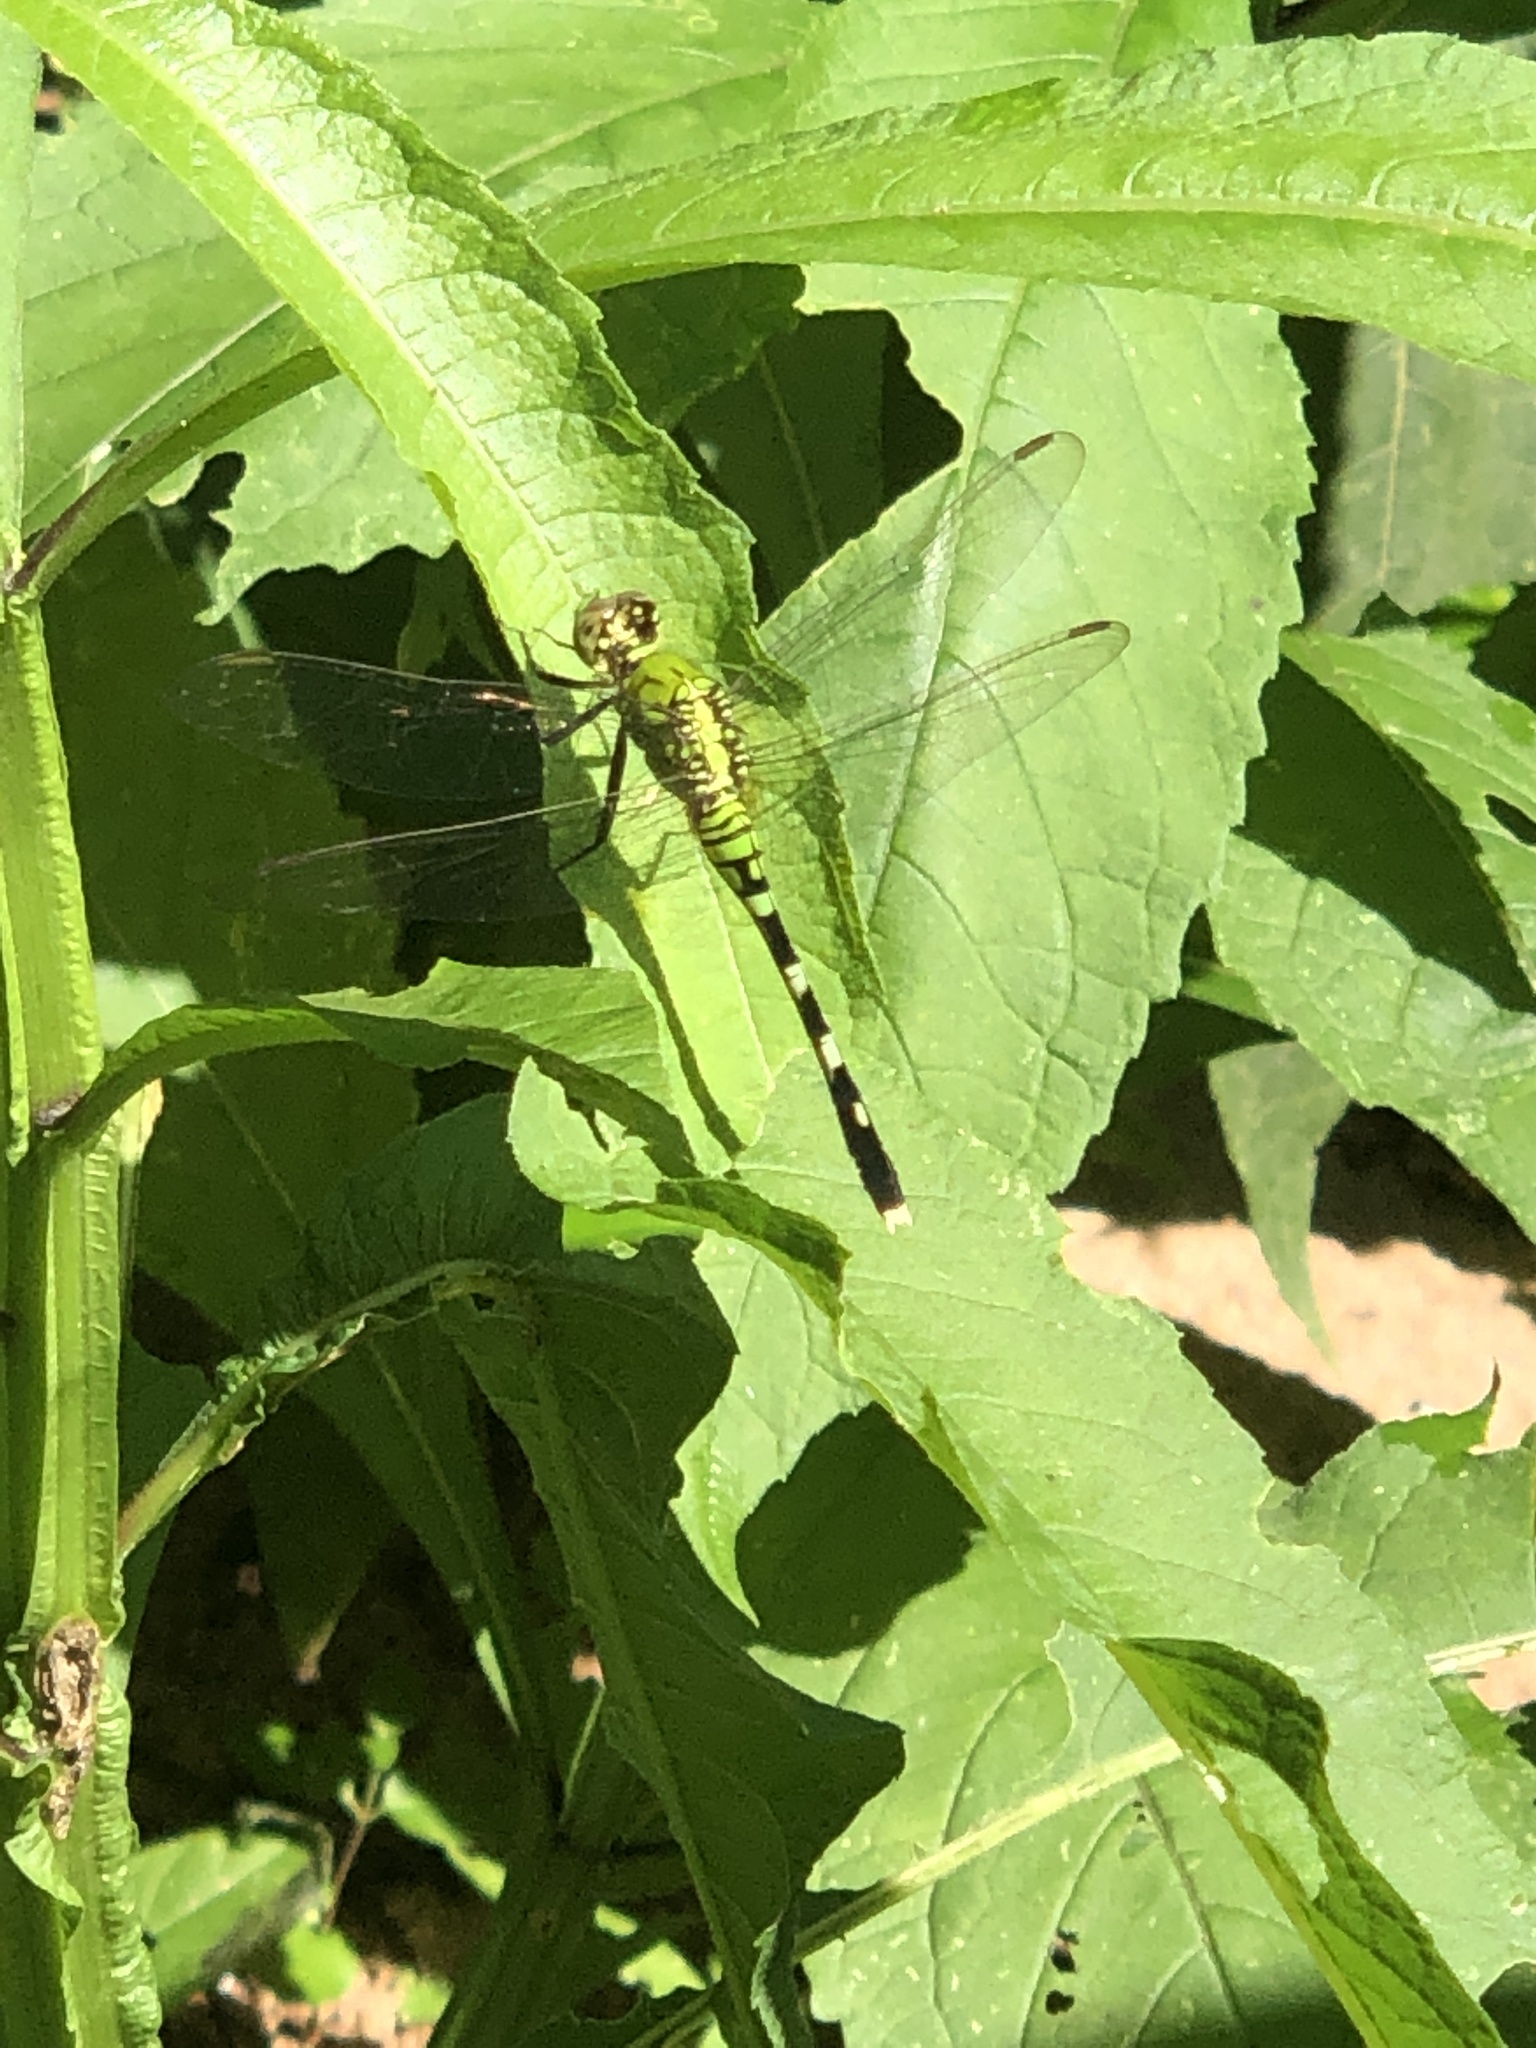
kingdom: Animalia
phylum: Arthropoda
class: Insecta
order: Odonata
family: Libellulidae
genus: Erythemis
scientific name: Erythemis simplicicollis
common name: Eastern pondhawk
